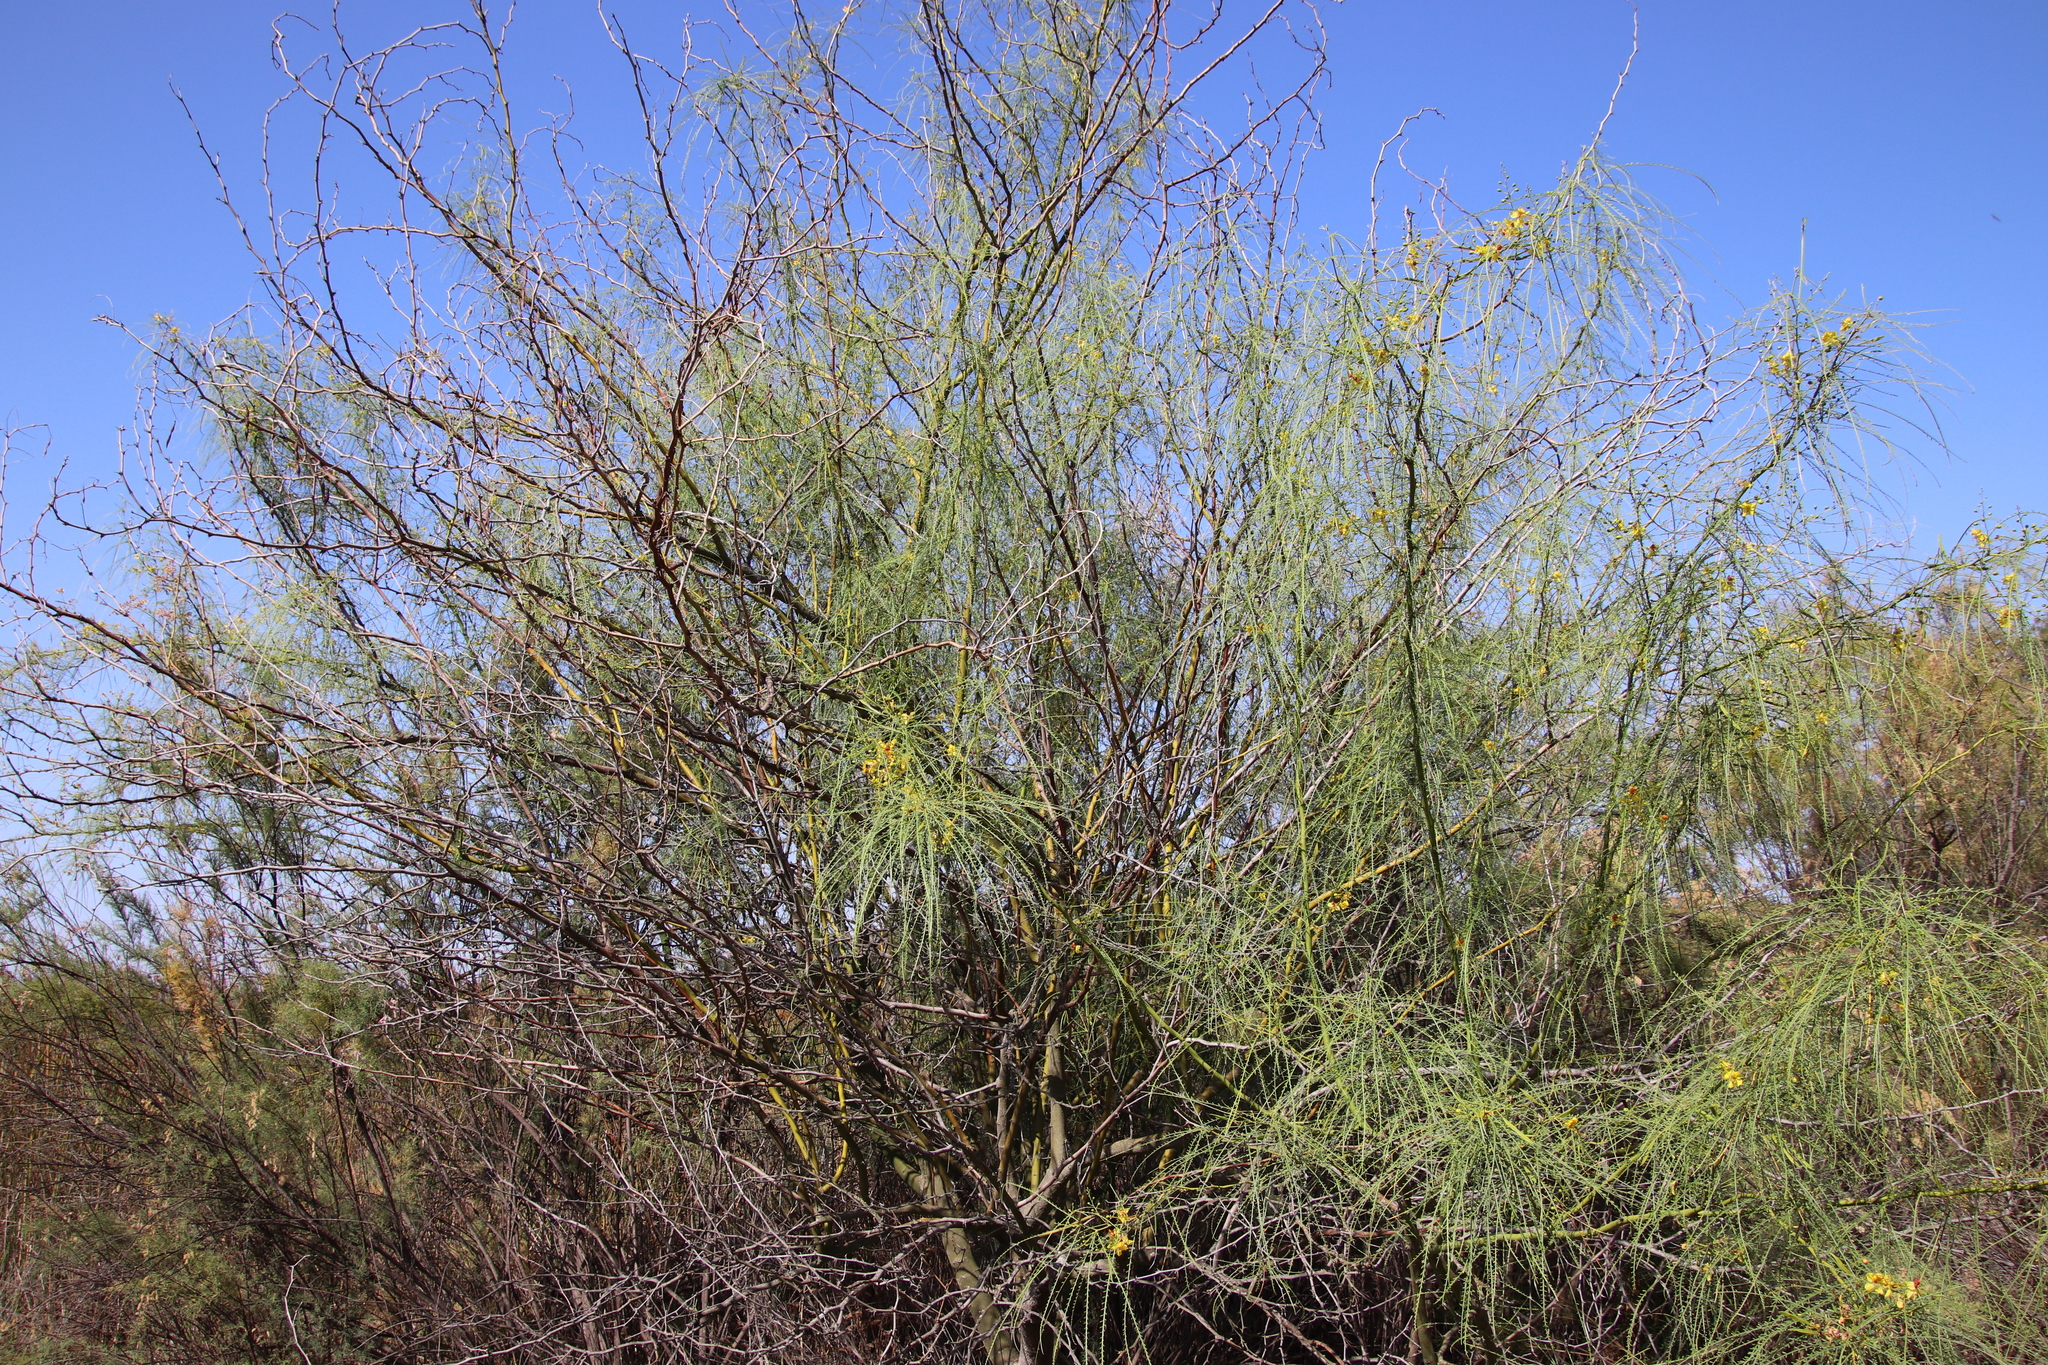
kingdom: Plantae
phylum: Tracheophyta
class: Magnoliopsida
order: Fabales
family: Fabaceae
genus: Parkinsonia
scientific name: Parkinsonia aculeata
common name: Jerusalem thorn
